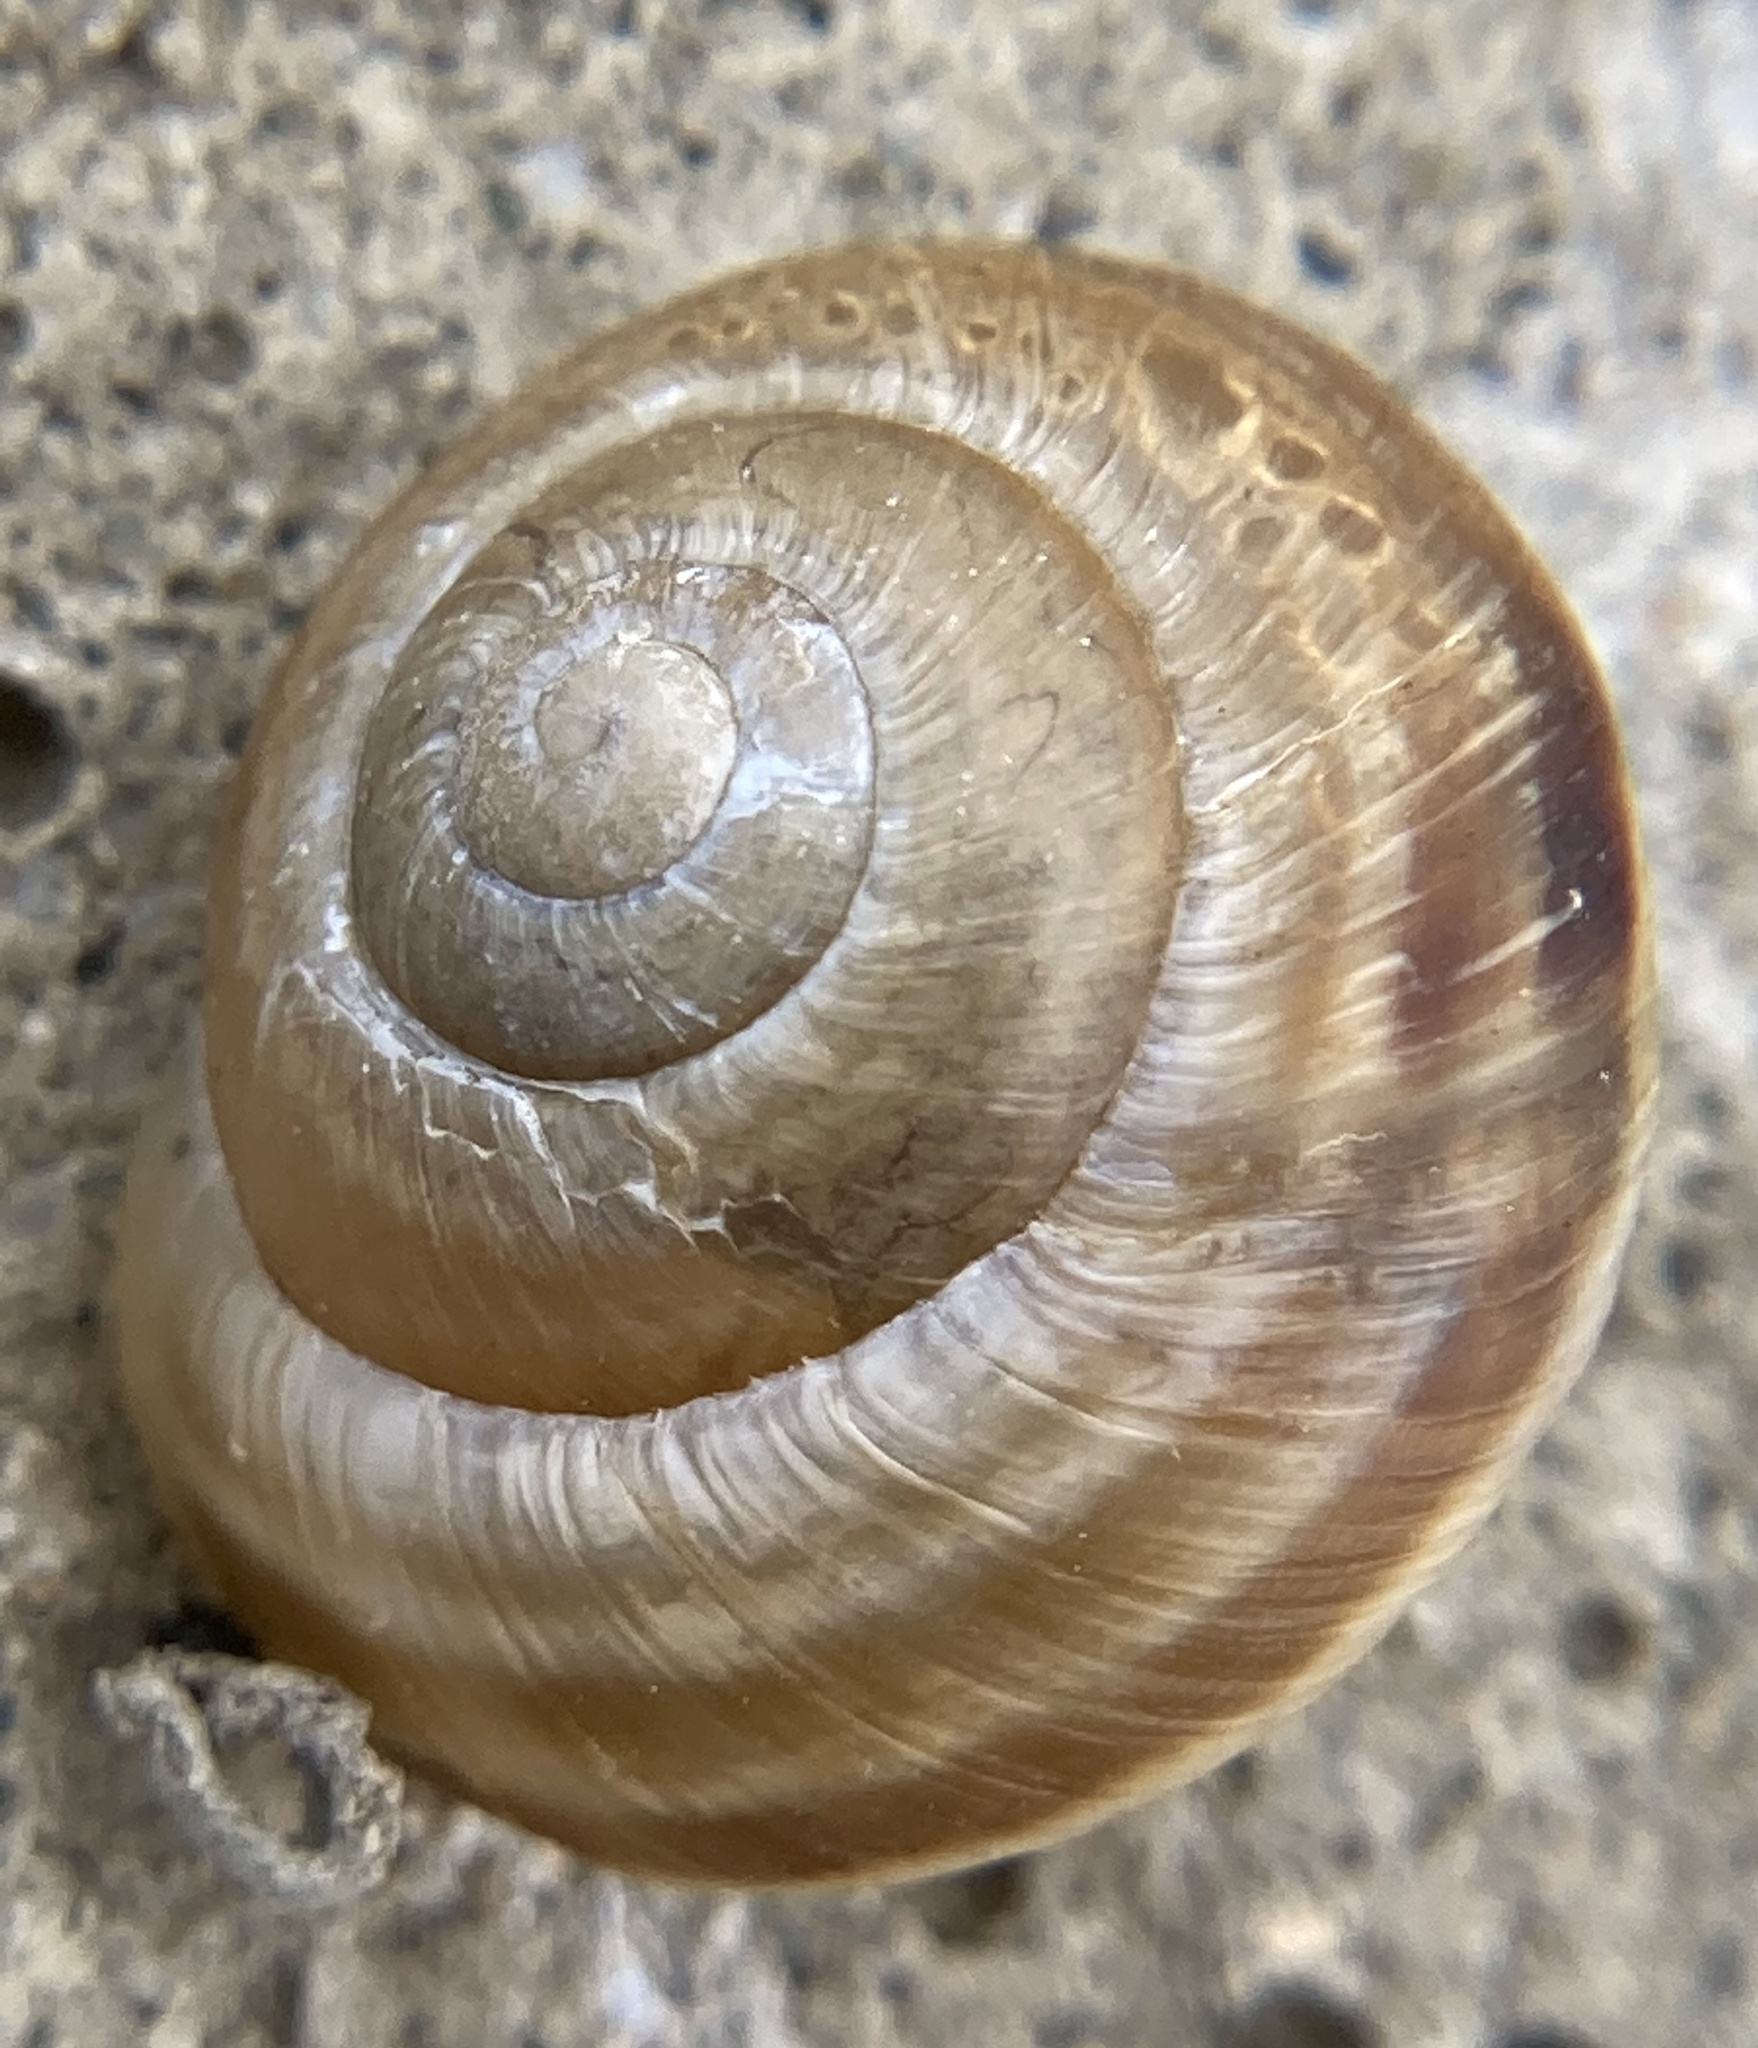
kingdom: Animalia
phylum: Mollusca
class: Gastropoda
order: Stylommatophora
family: Helicidae
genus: Caucasotachea
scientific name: Caucasotachea vindobonensis
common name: European helicid land snail
